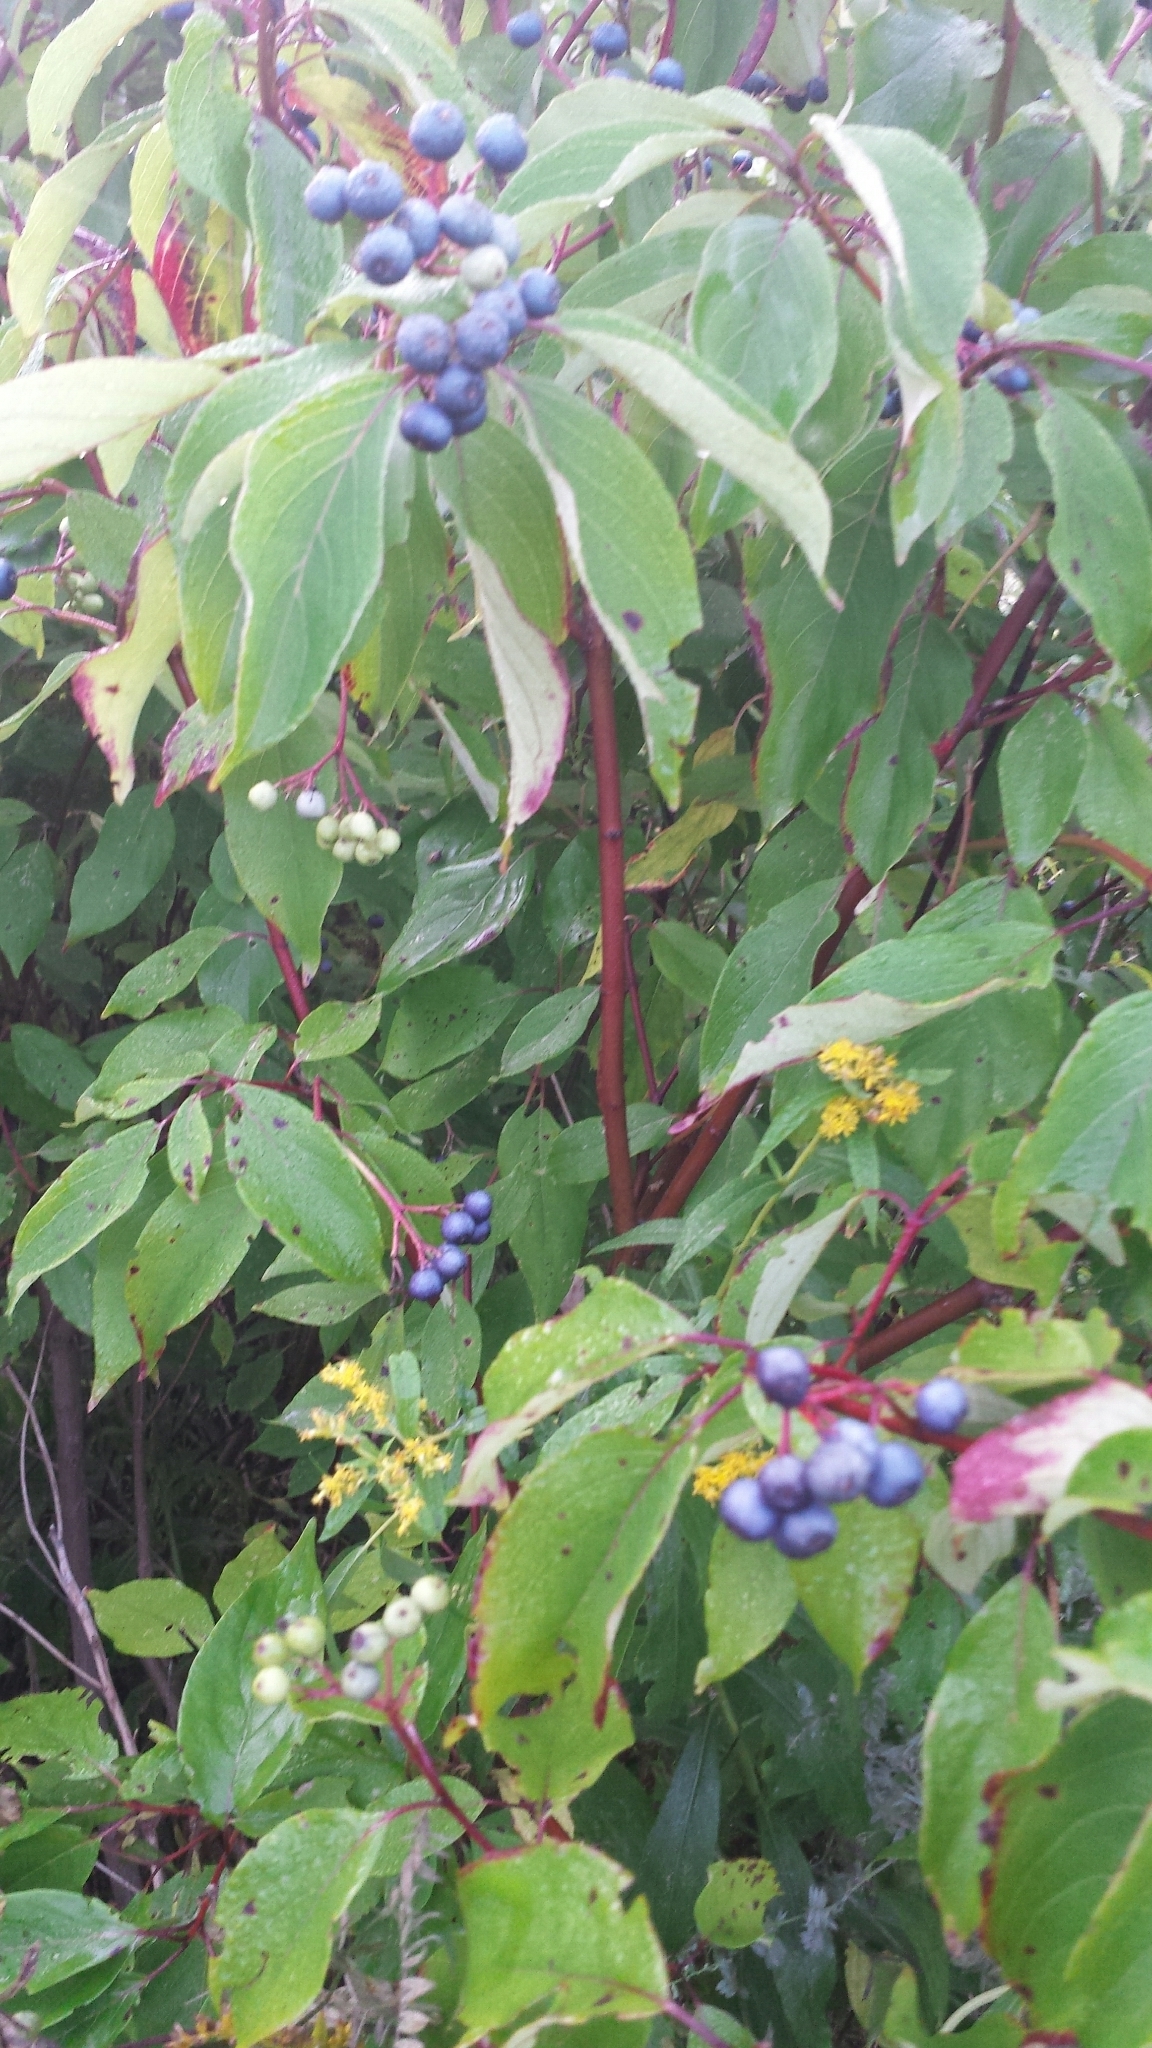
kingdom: Plantae
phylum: Tracheophyta
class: Magnoliopsida
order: Cornales
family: Cornaceae
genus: Cornus
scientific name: Cornus amomum
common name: Silky dogwood
